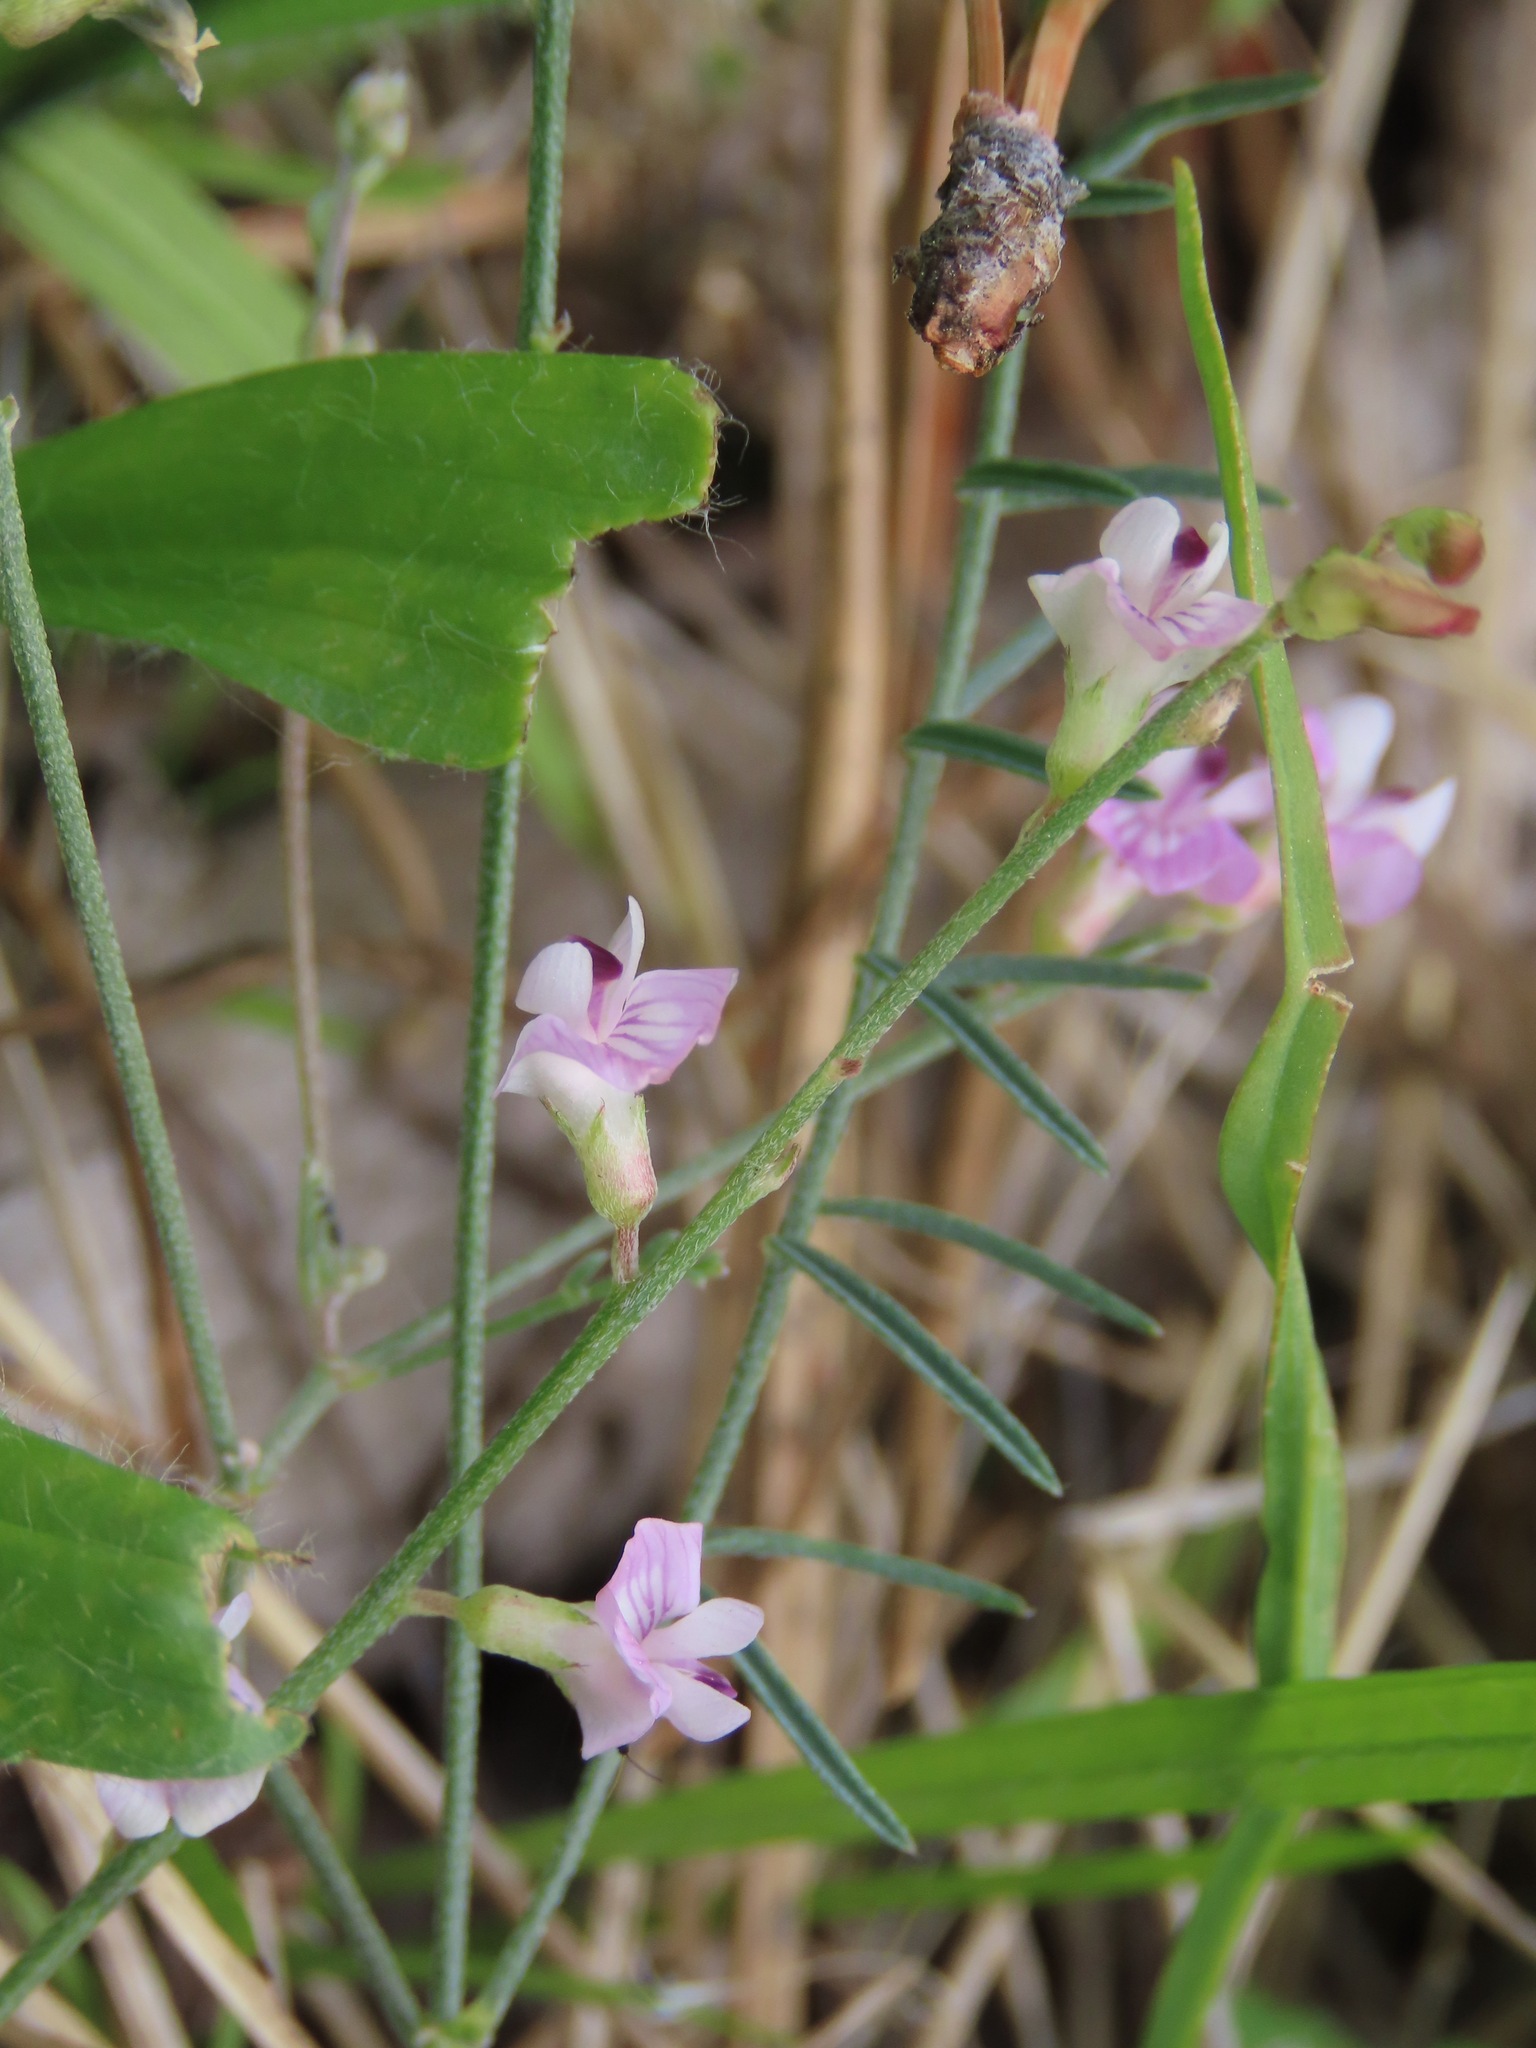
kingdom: Plantae
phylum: Tracheophyta
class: Magnoliopsida
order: Fabales
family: Fabaceae
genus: Astragalus
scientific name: Astragalus miser
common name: Timber milkvetch
